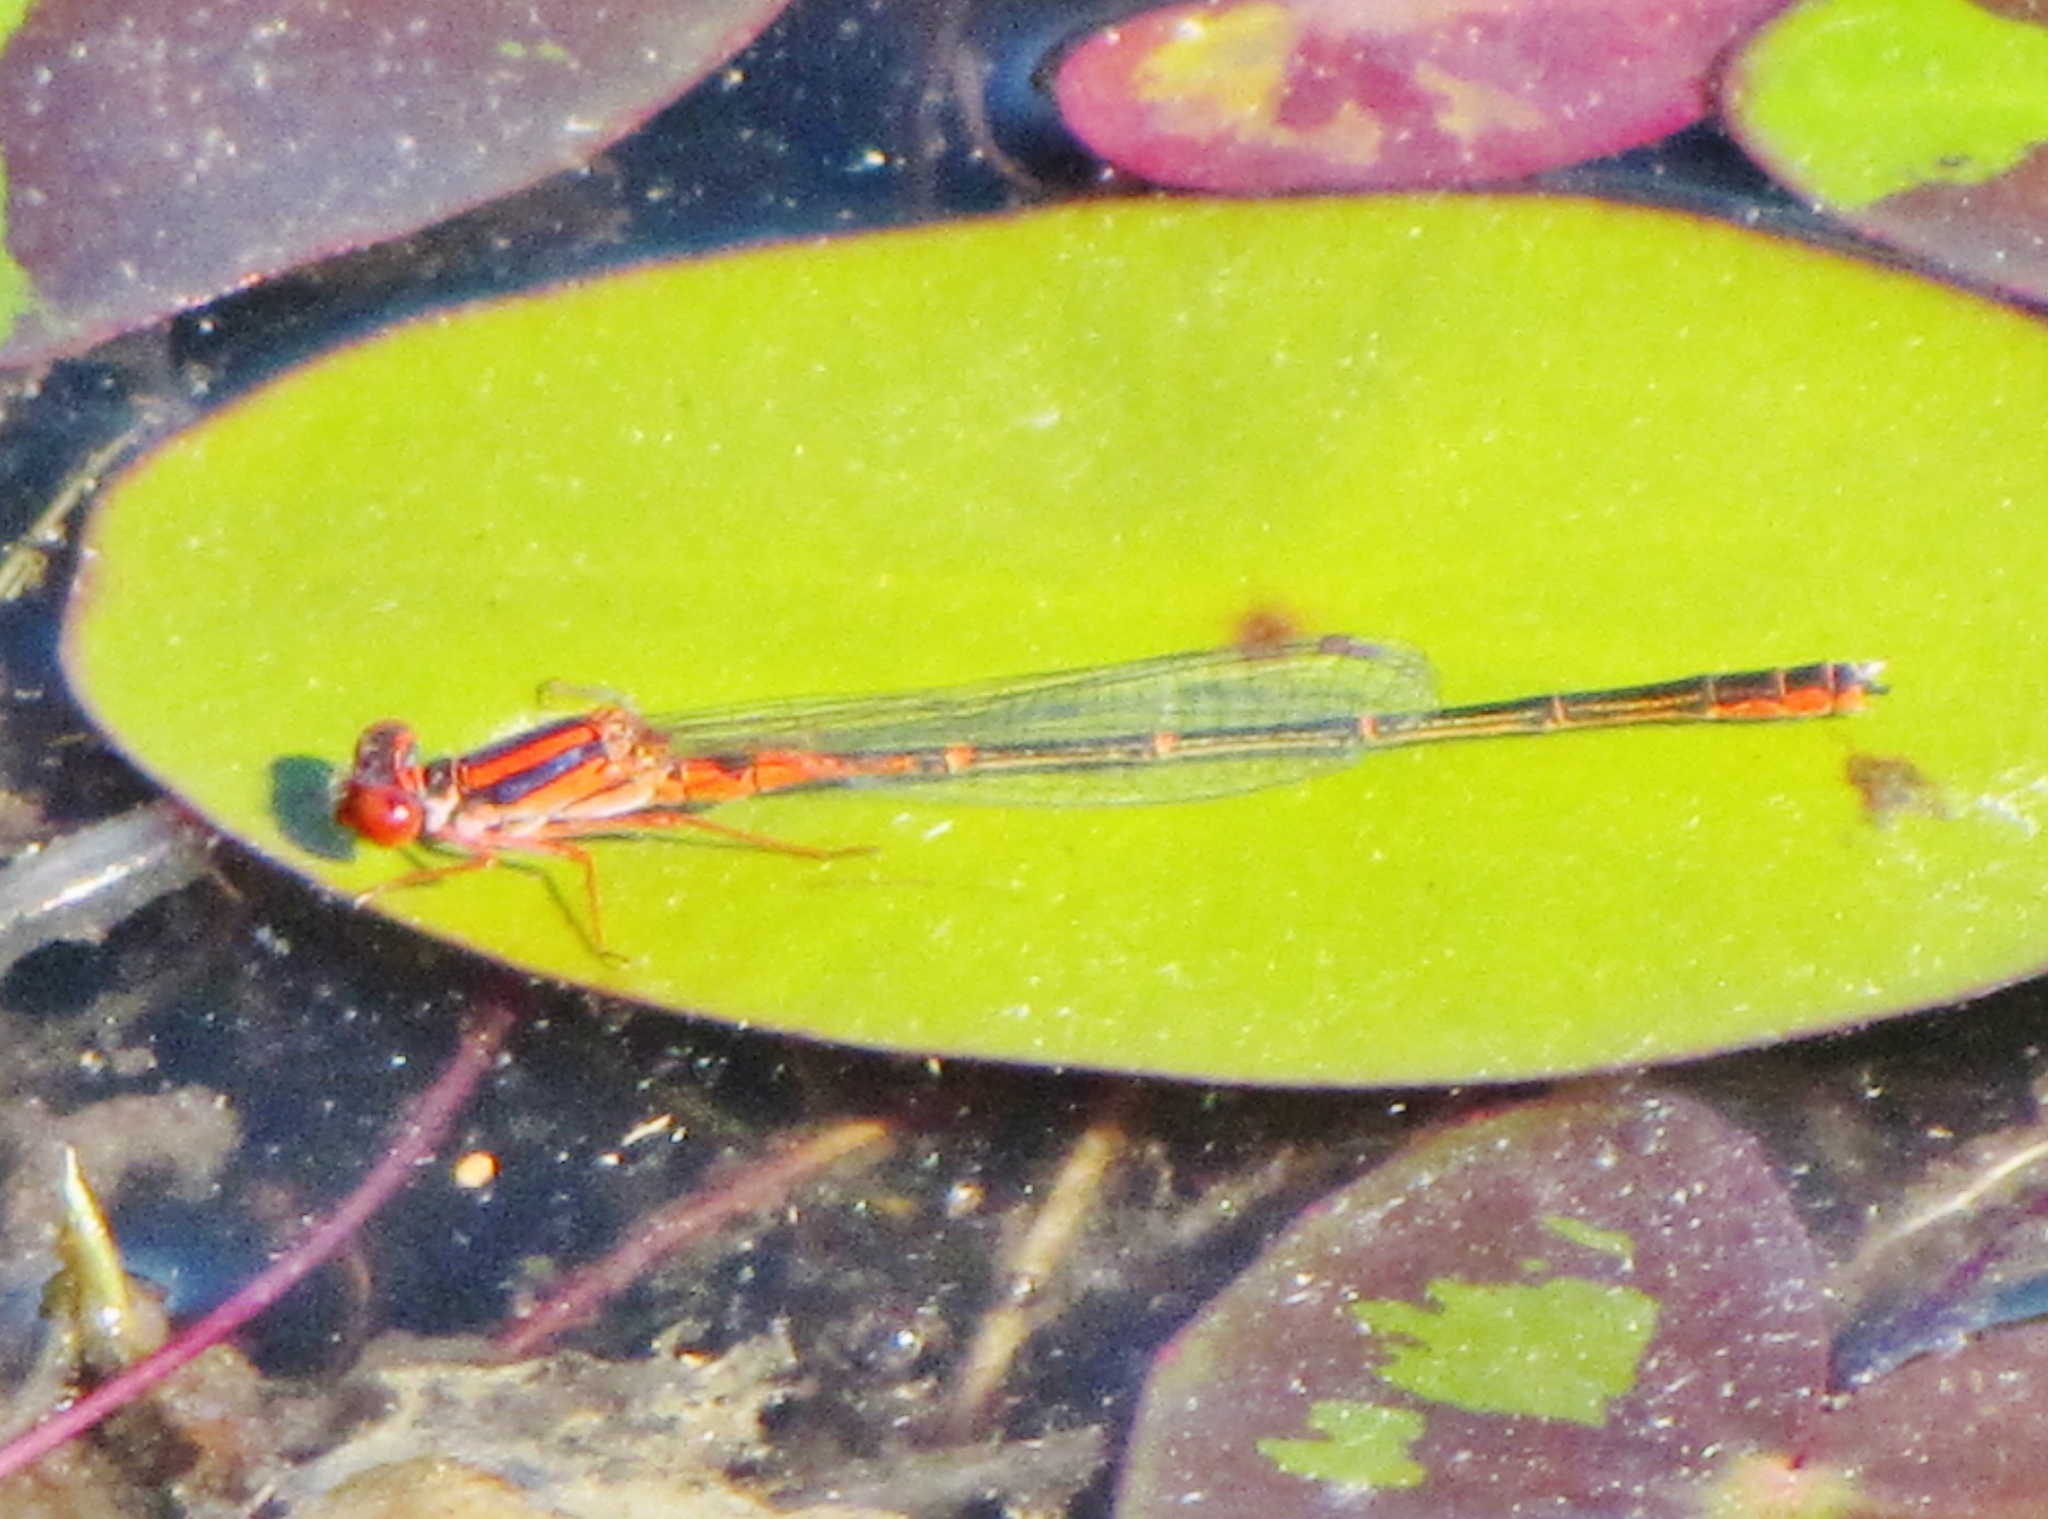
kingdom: Animalia
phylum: Arthropoda
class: Insecta
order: Odonata
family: Coenagrionidae
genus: Enallagma
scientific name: Enallagma concisum
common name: Cherry bluet
